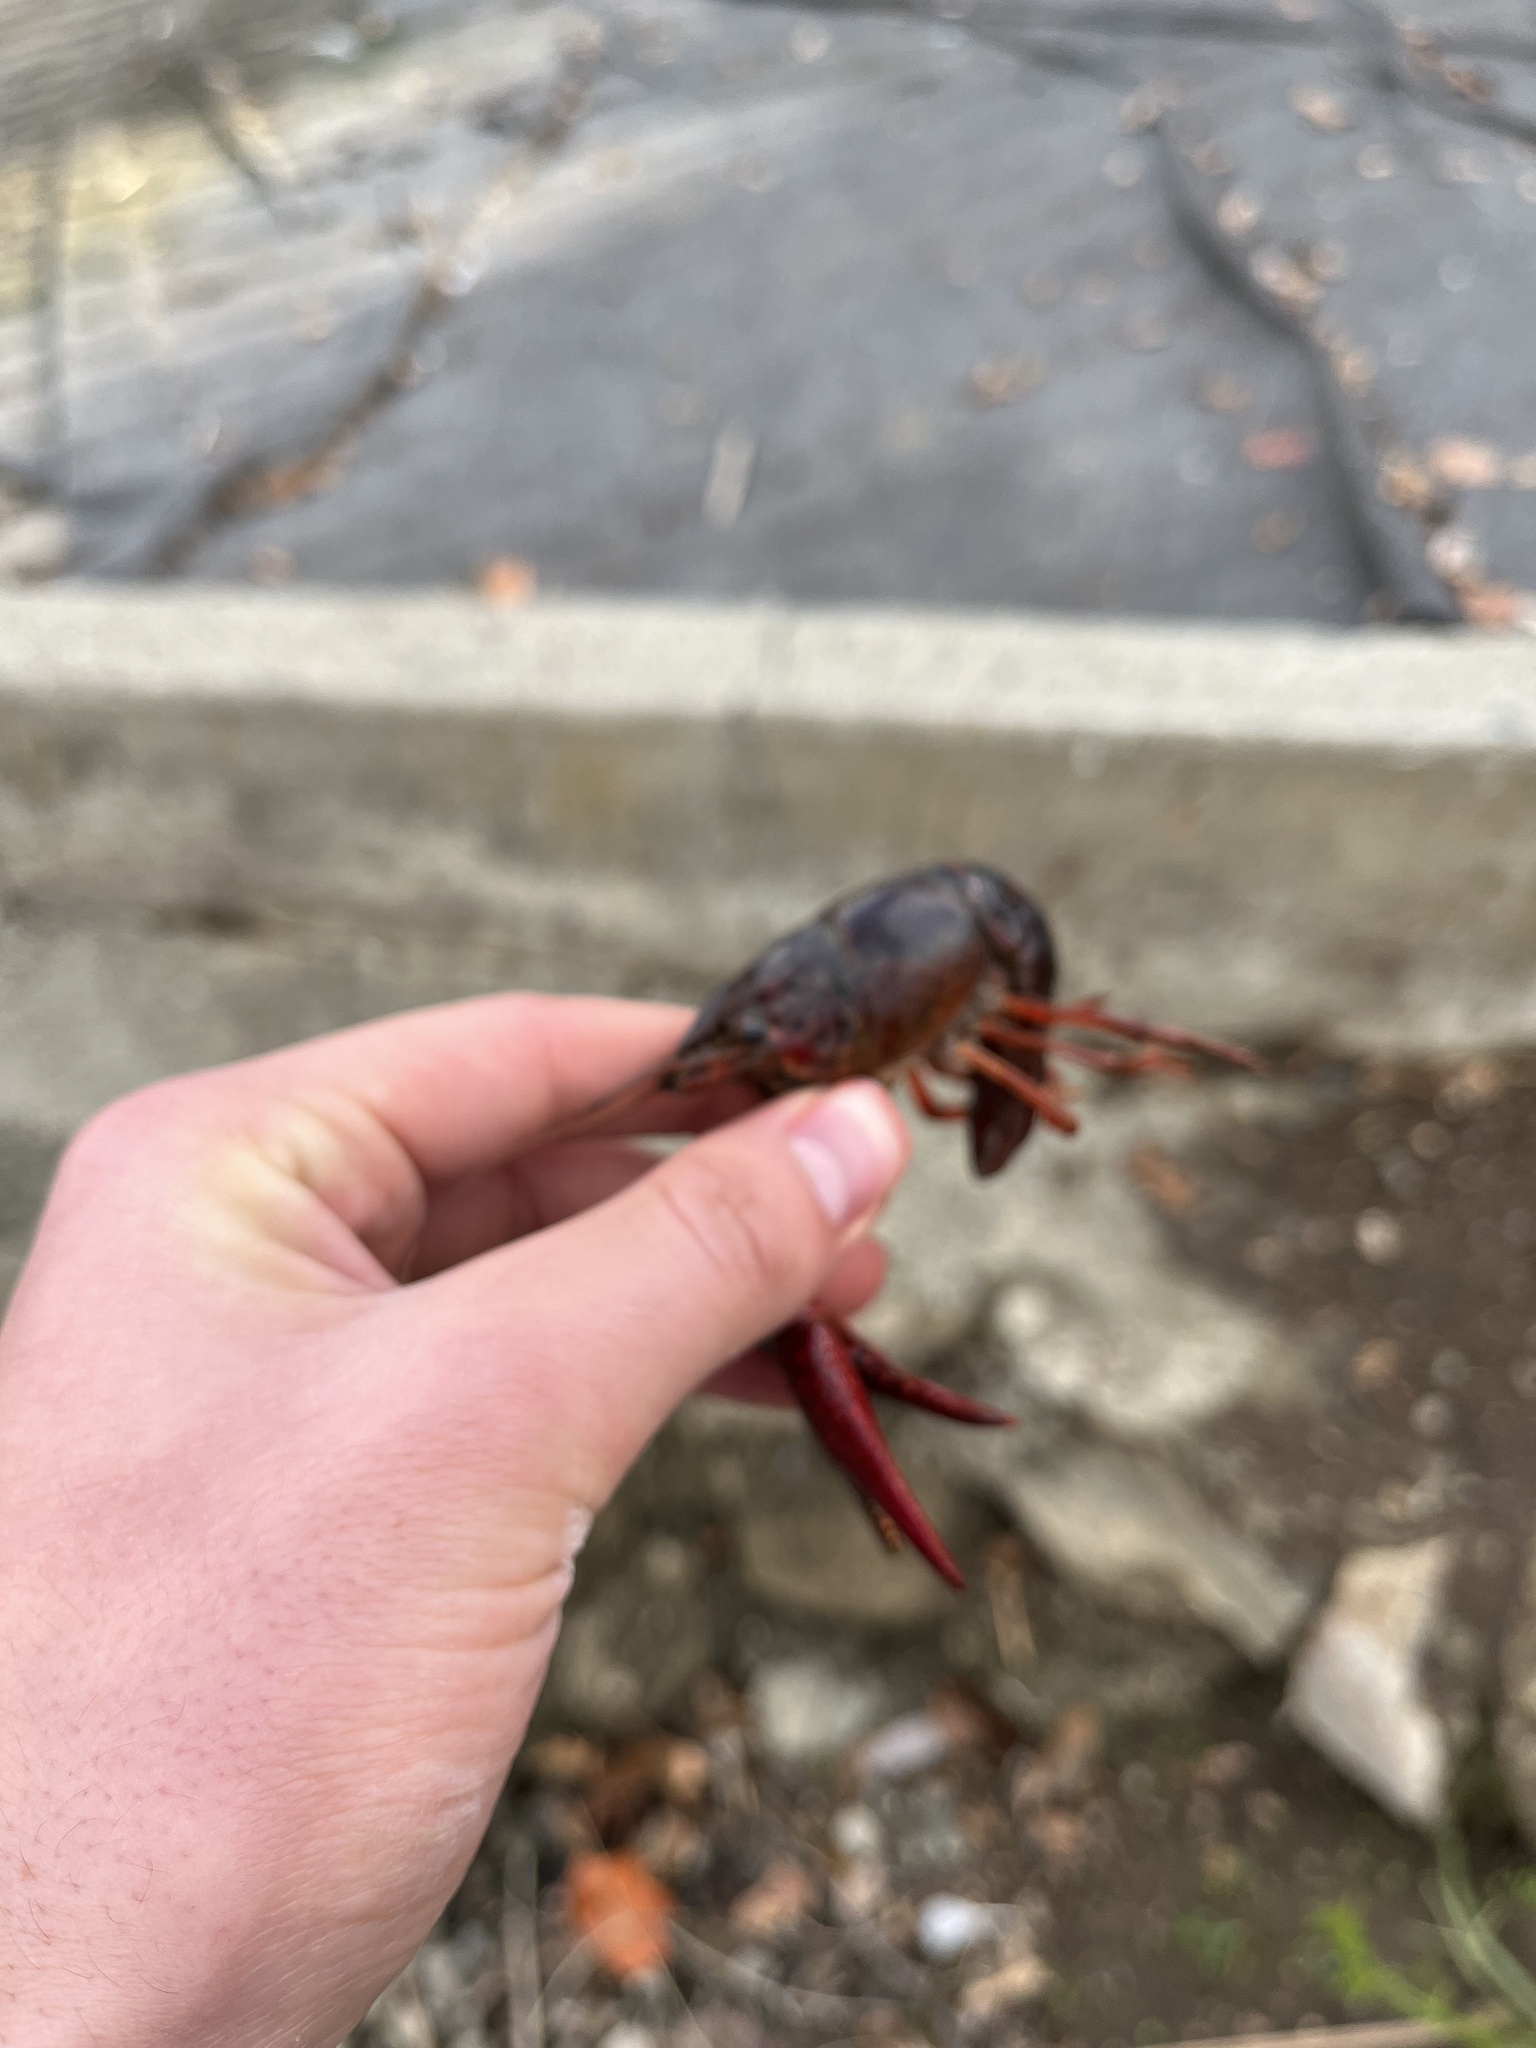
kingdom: Animalia
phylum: Arthropoda
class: Malacostraca
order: Decapoda
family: Cambaridae
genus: Procambarus
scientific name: Procambarus clarkii
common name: Red swamp crayfish
